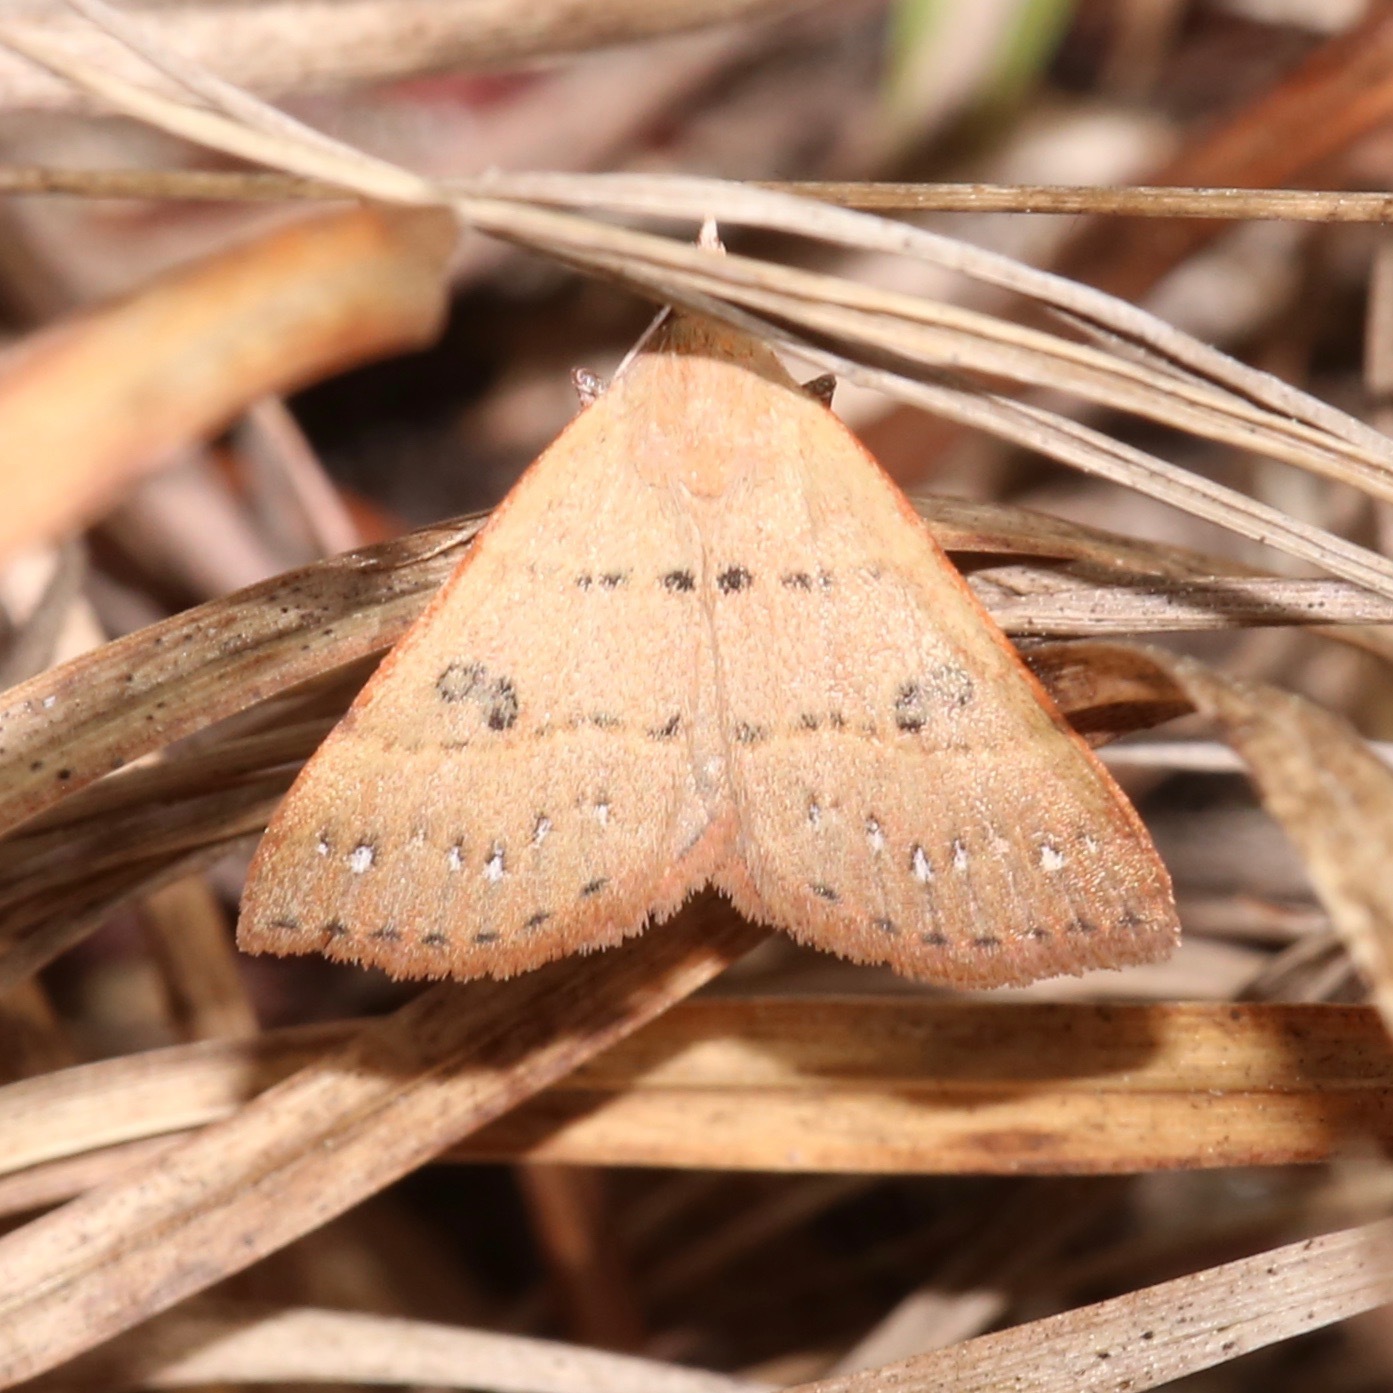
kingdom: Animalia
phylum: Arthropoda
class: Insecta
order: Lepidoptera
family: Erebidae
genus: Hemeroplanis
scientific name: Hemeroplanis habitalis
